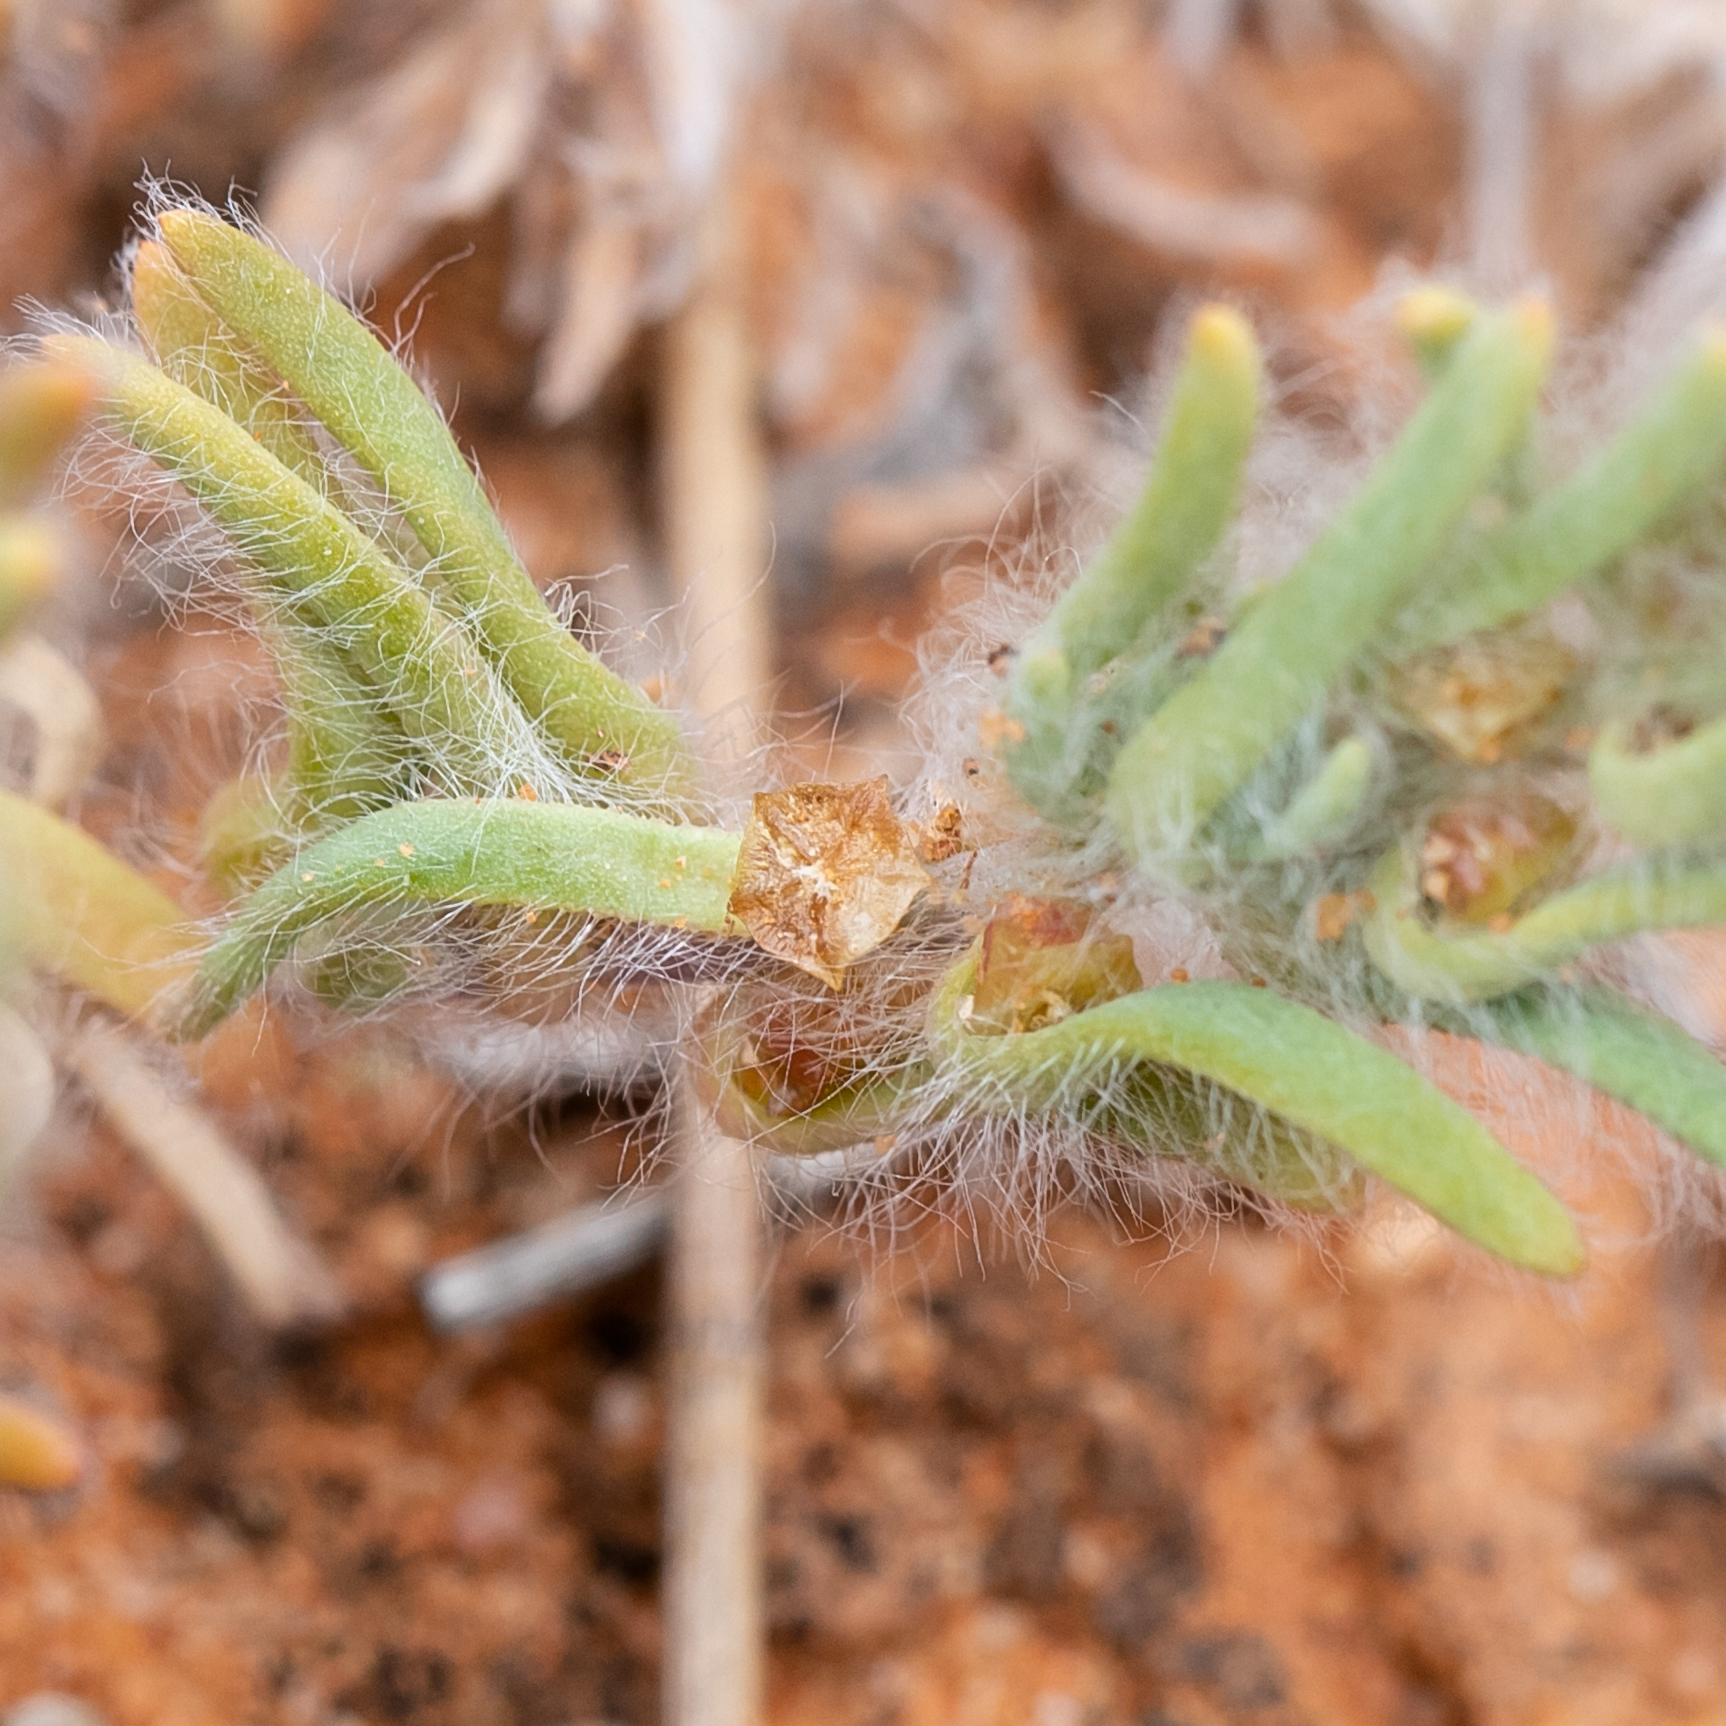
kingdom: Plantae
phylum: Tracheophyta
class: Magnoliopsida
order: Caryophyllales
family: Amaranthaceae
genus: Sclerolaena
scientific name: Sclerolaena brachyptera
